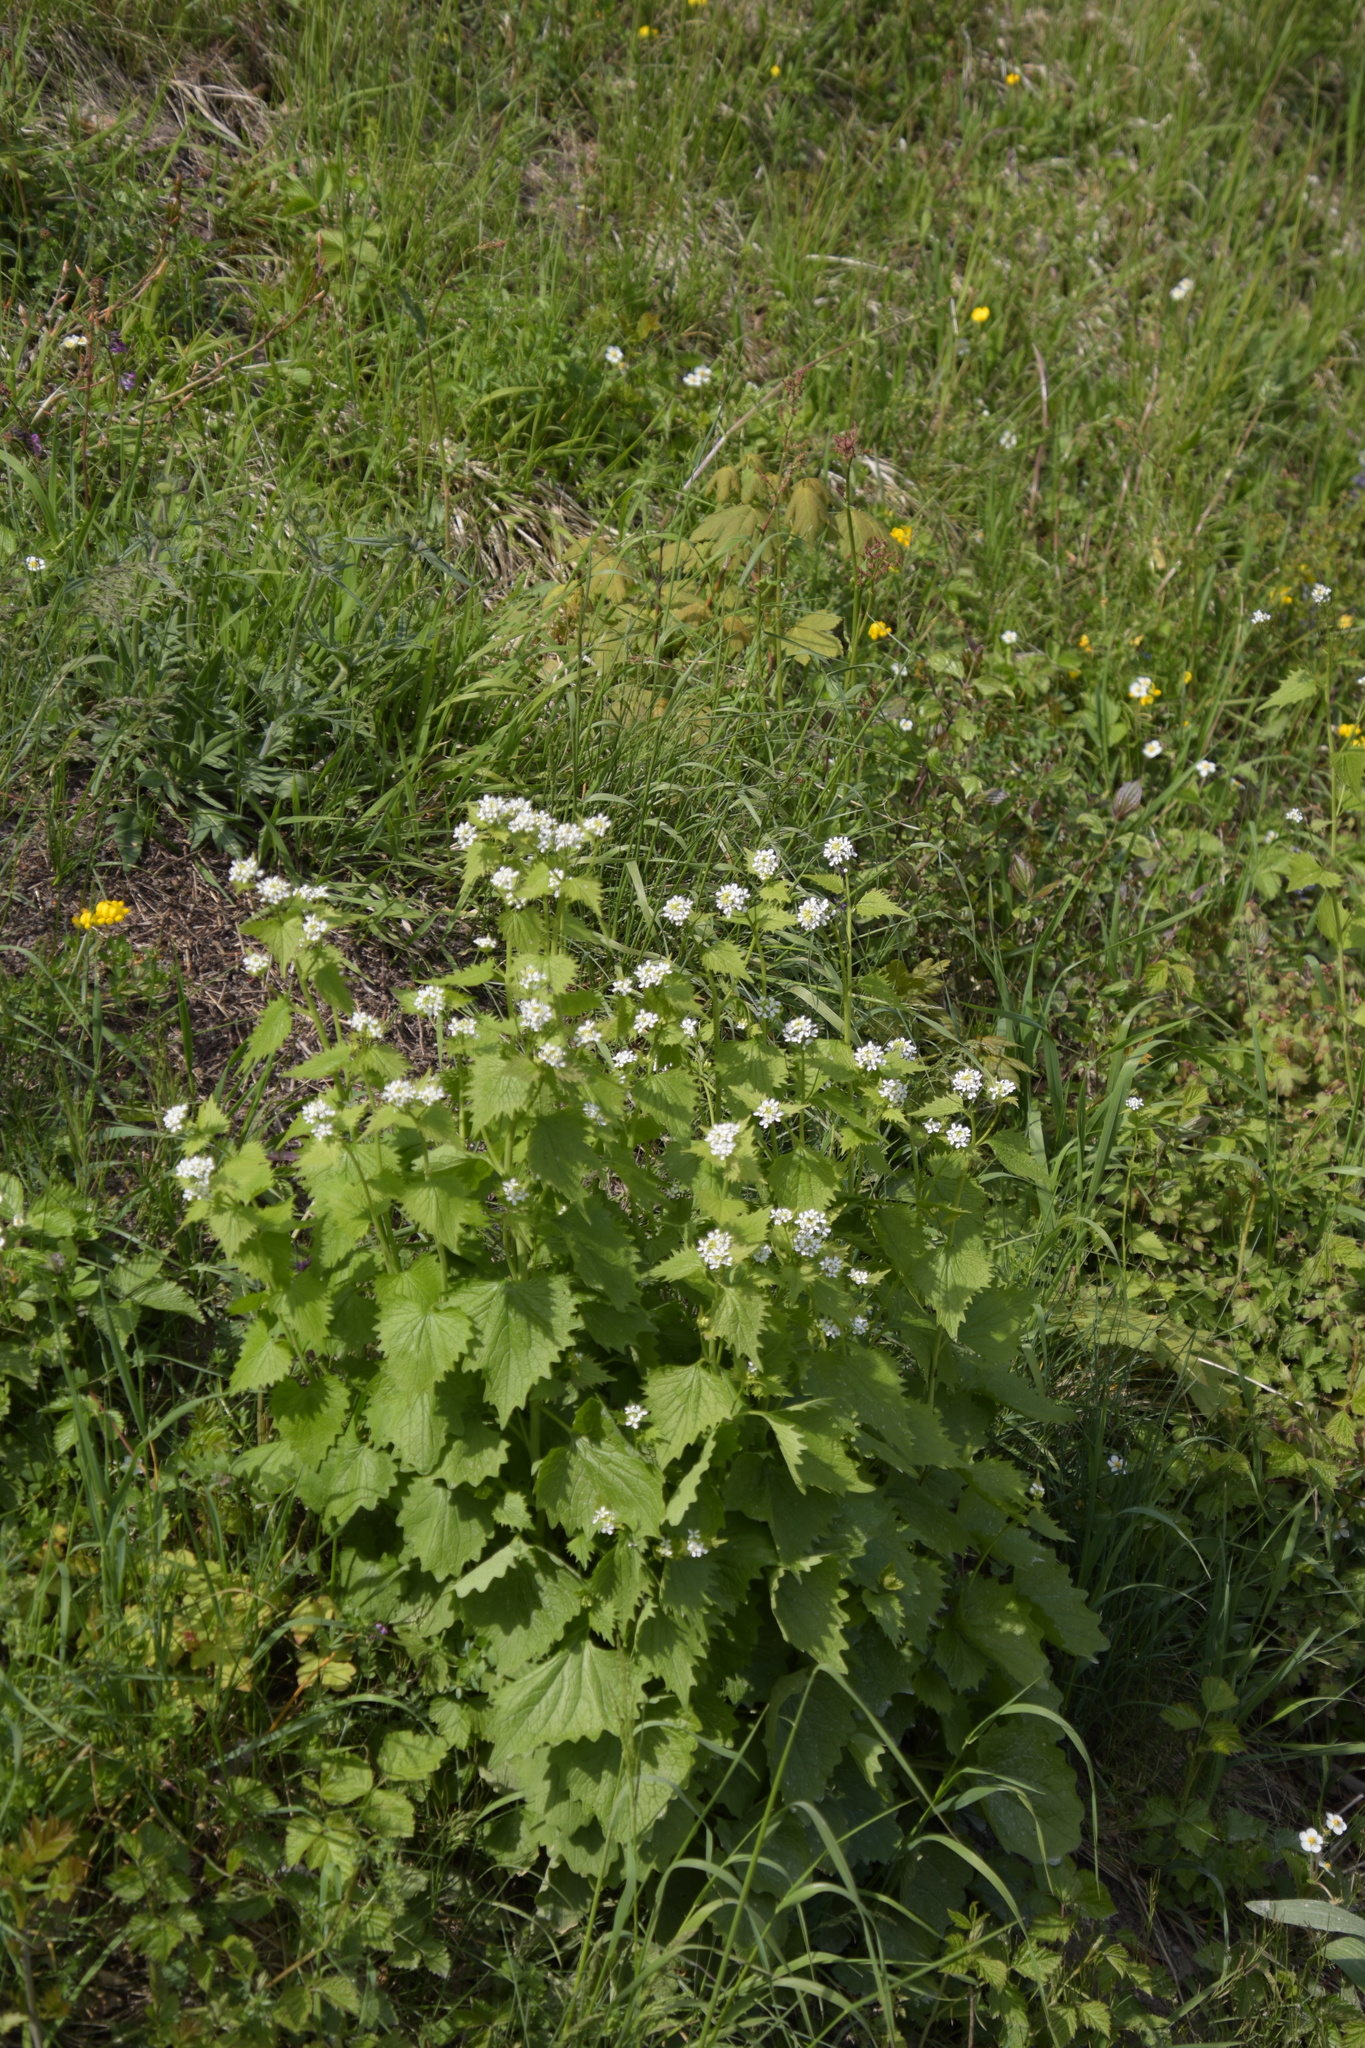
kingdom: Plantae
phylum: Tracheophyta
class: Magnoliopsida
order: Brassicales
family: Brassicaceae
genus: Alliaria
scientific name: Alliaria petiolata
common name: Garlic mustard
